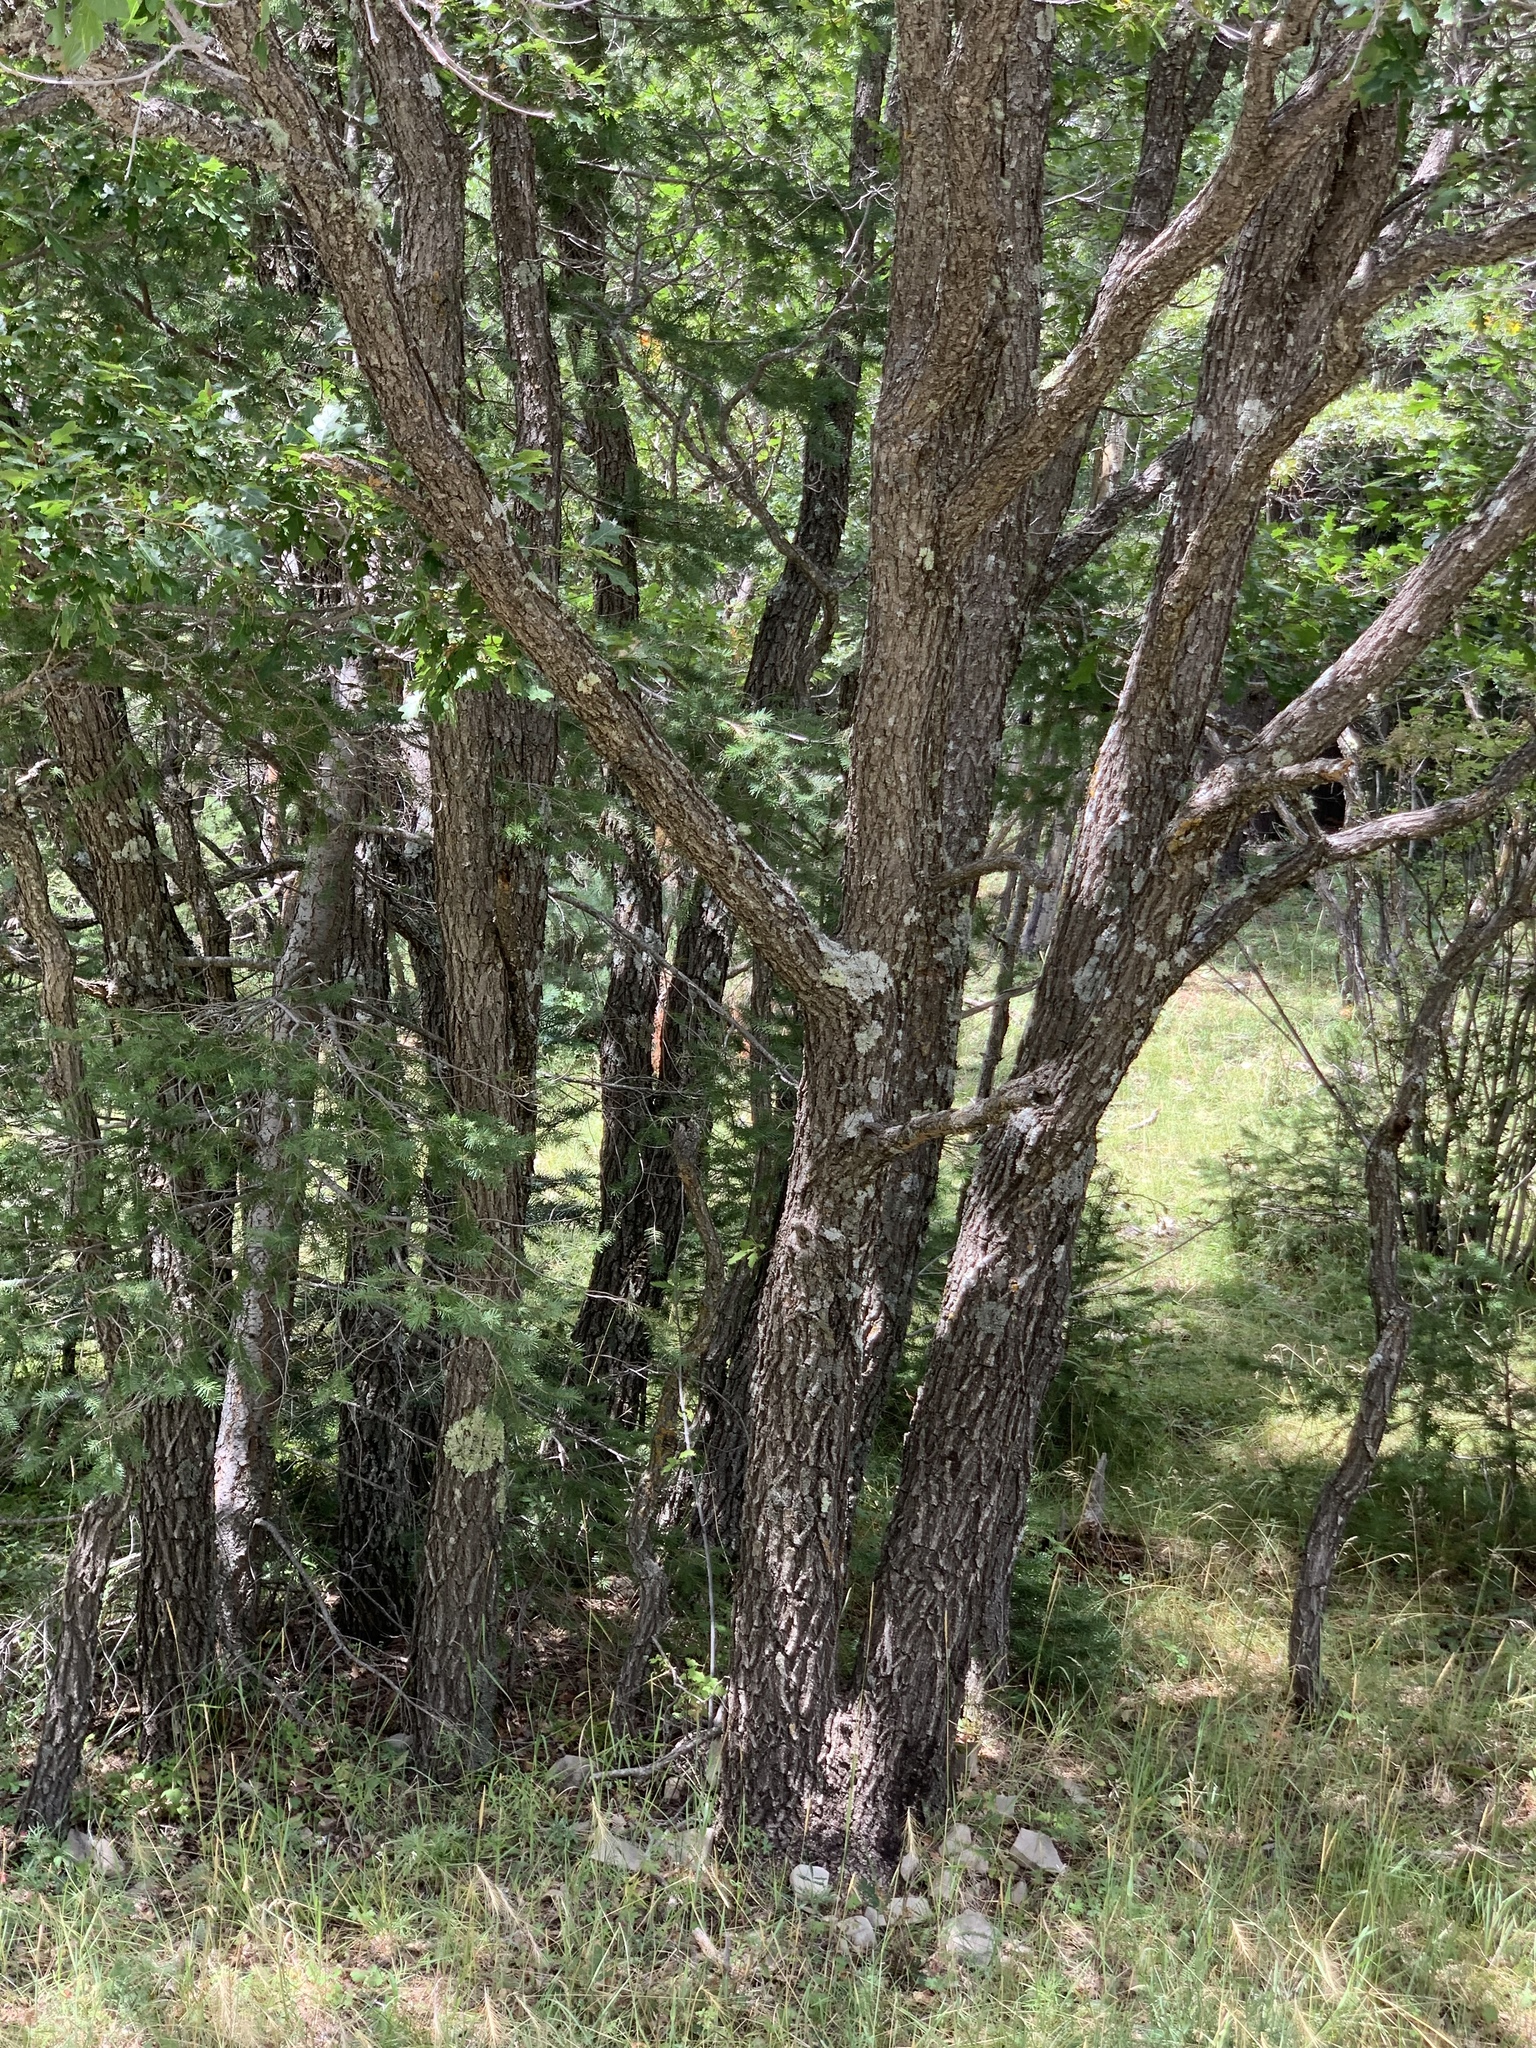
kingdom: Plantae
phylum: Tracheophyta
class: Magnoliopsida
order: Fagales
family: Fagaceae
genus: Quercus
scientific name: Quercus gambelii
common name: Gambel oak
